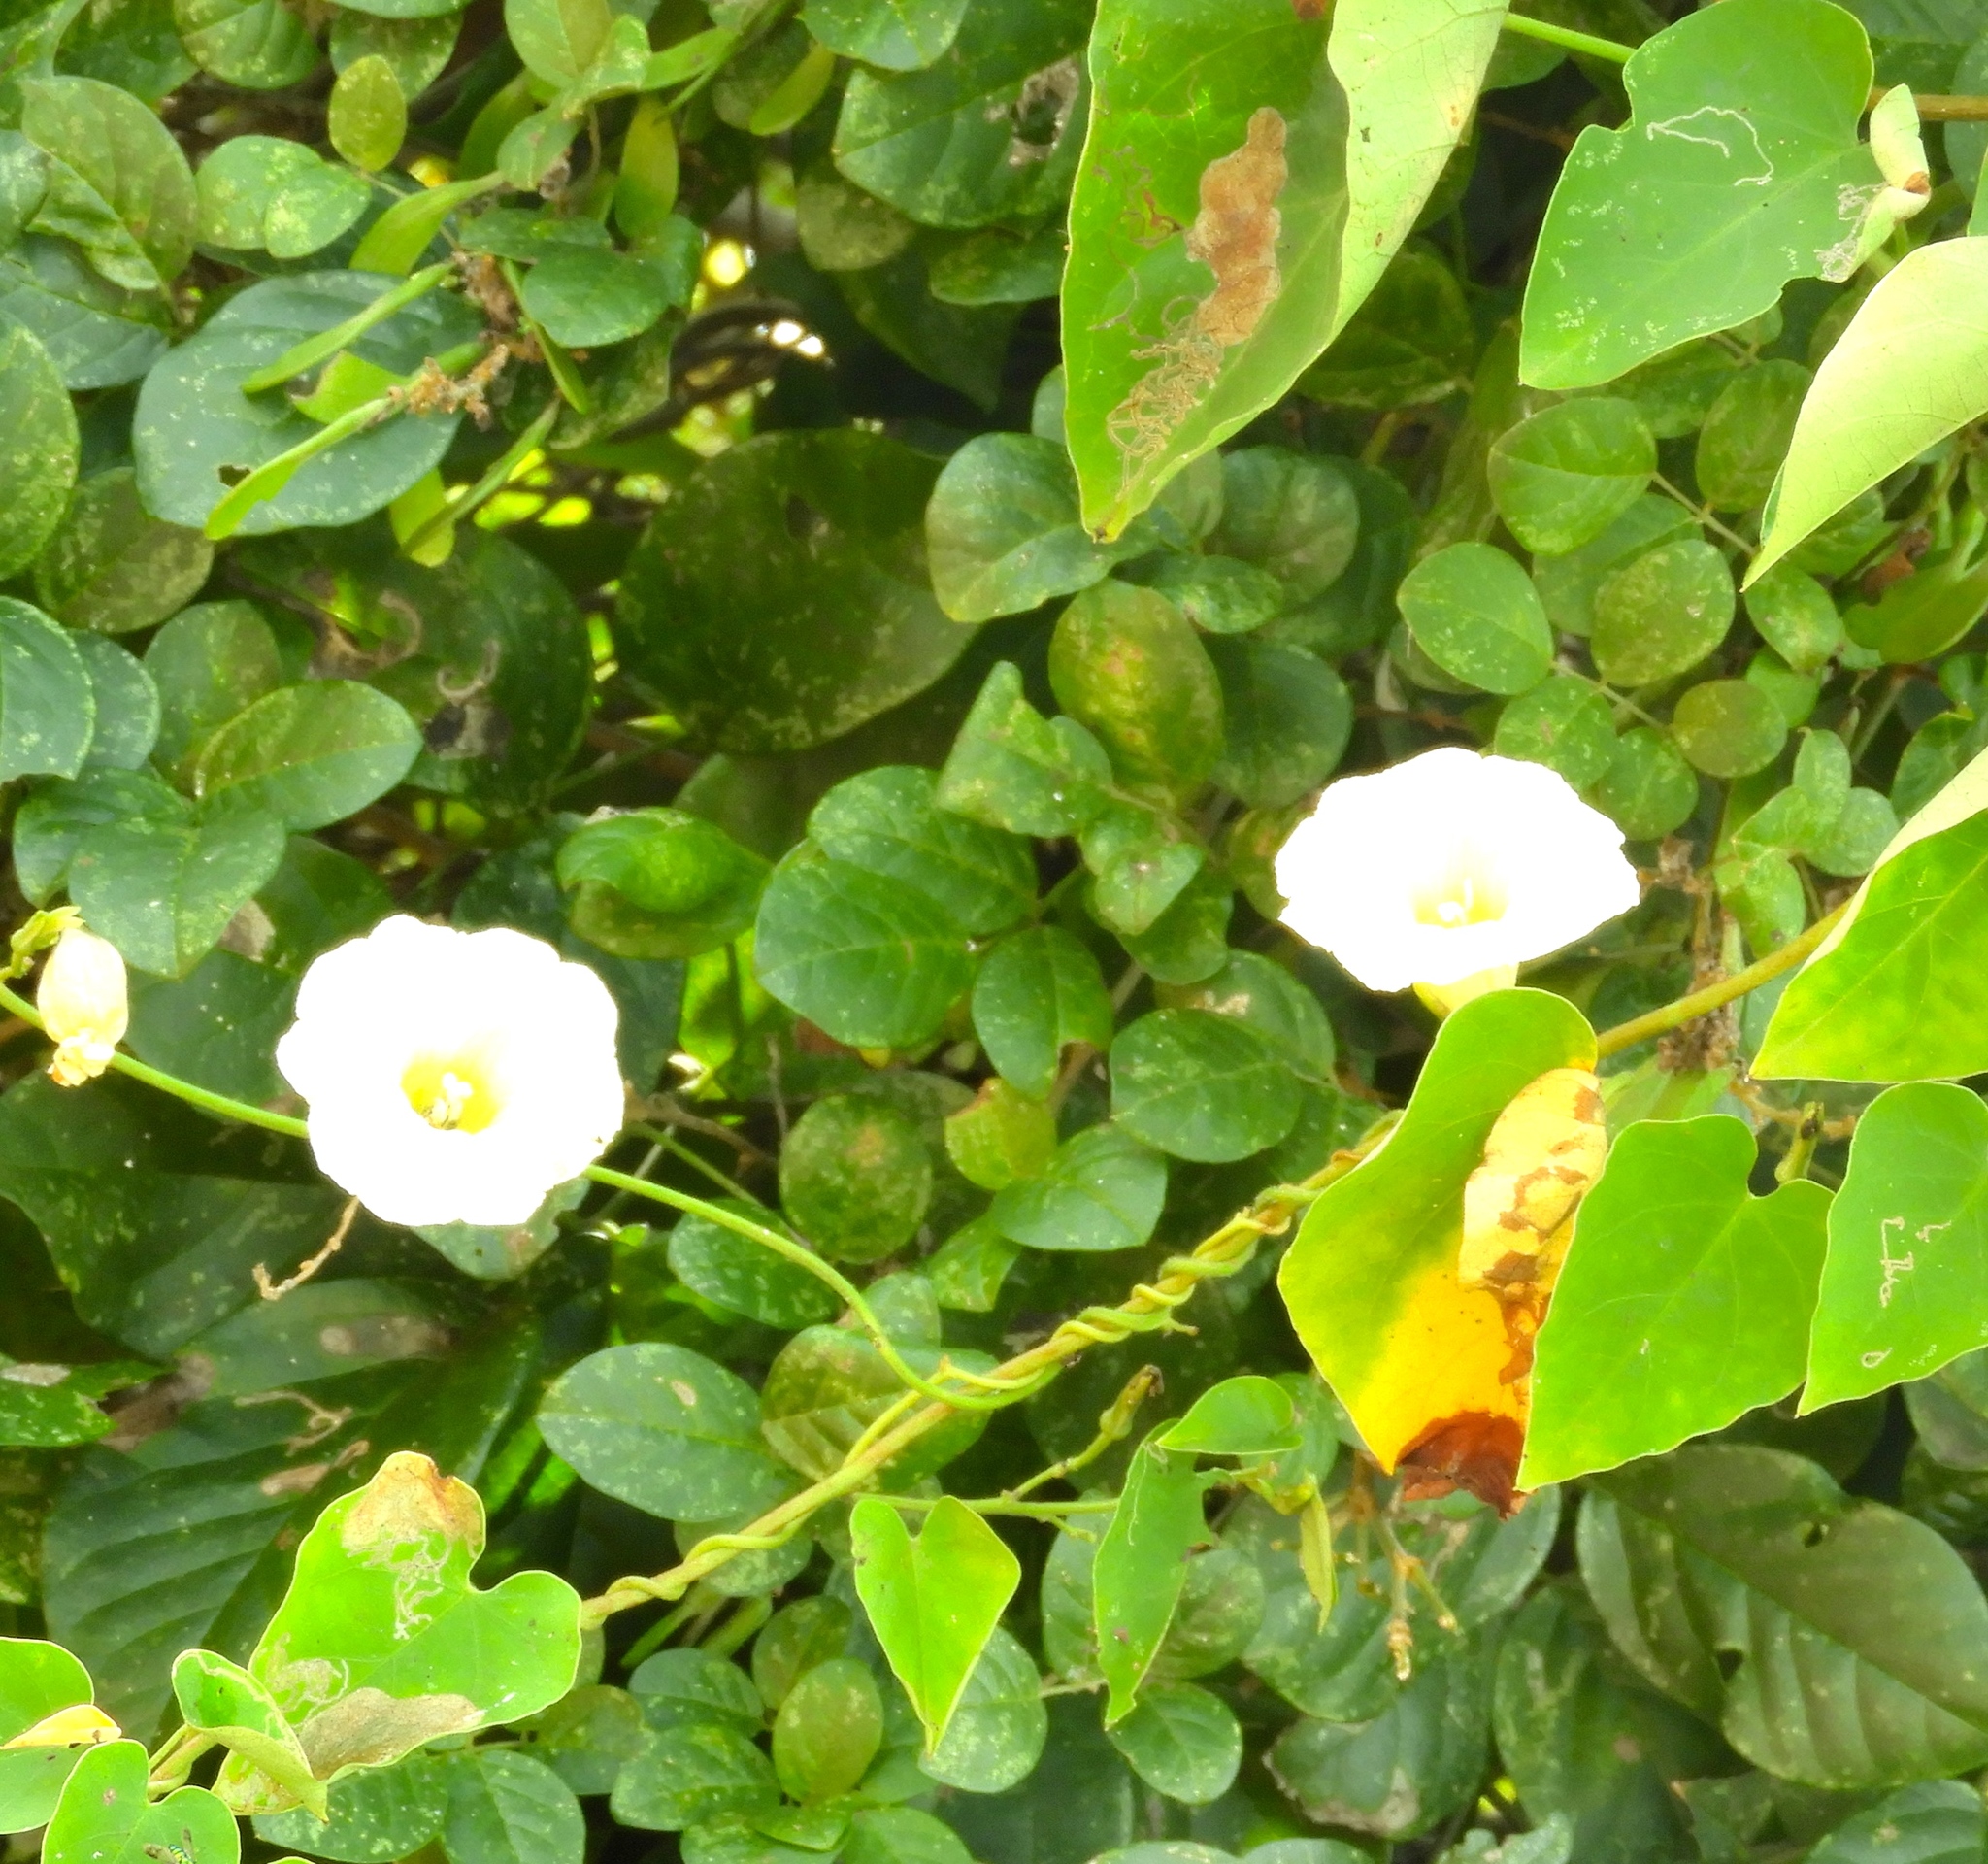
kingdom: Plantae
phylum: Tracheophyta
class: Magnoliopsida
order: Solanales
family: Convolvulaceae
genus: Ipomoea
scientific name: Ipomoea corymbosa
